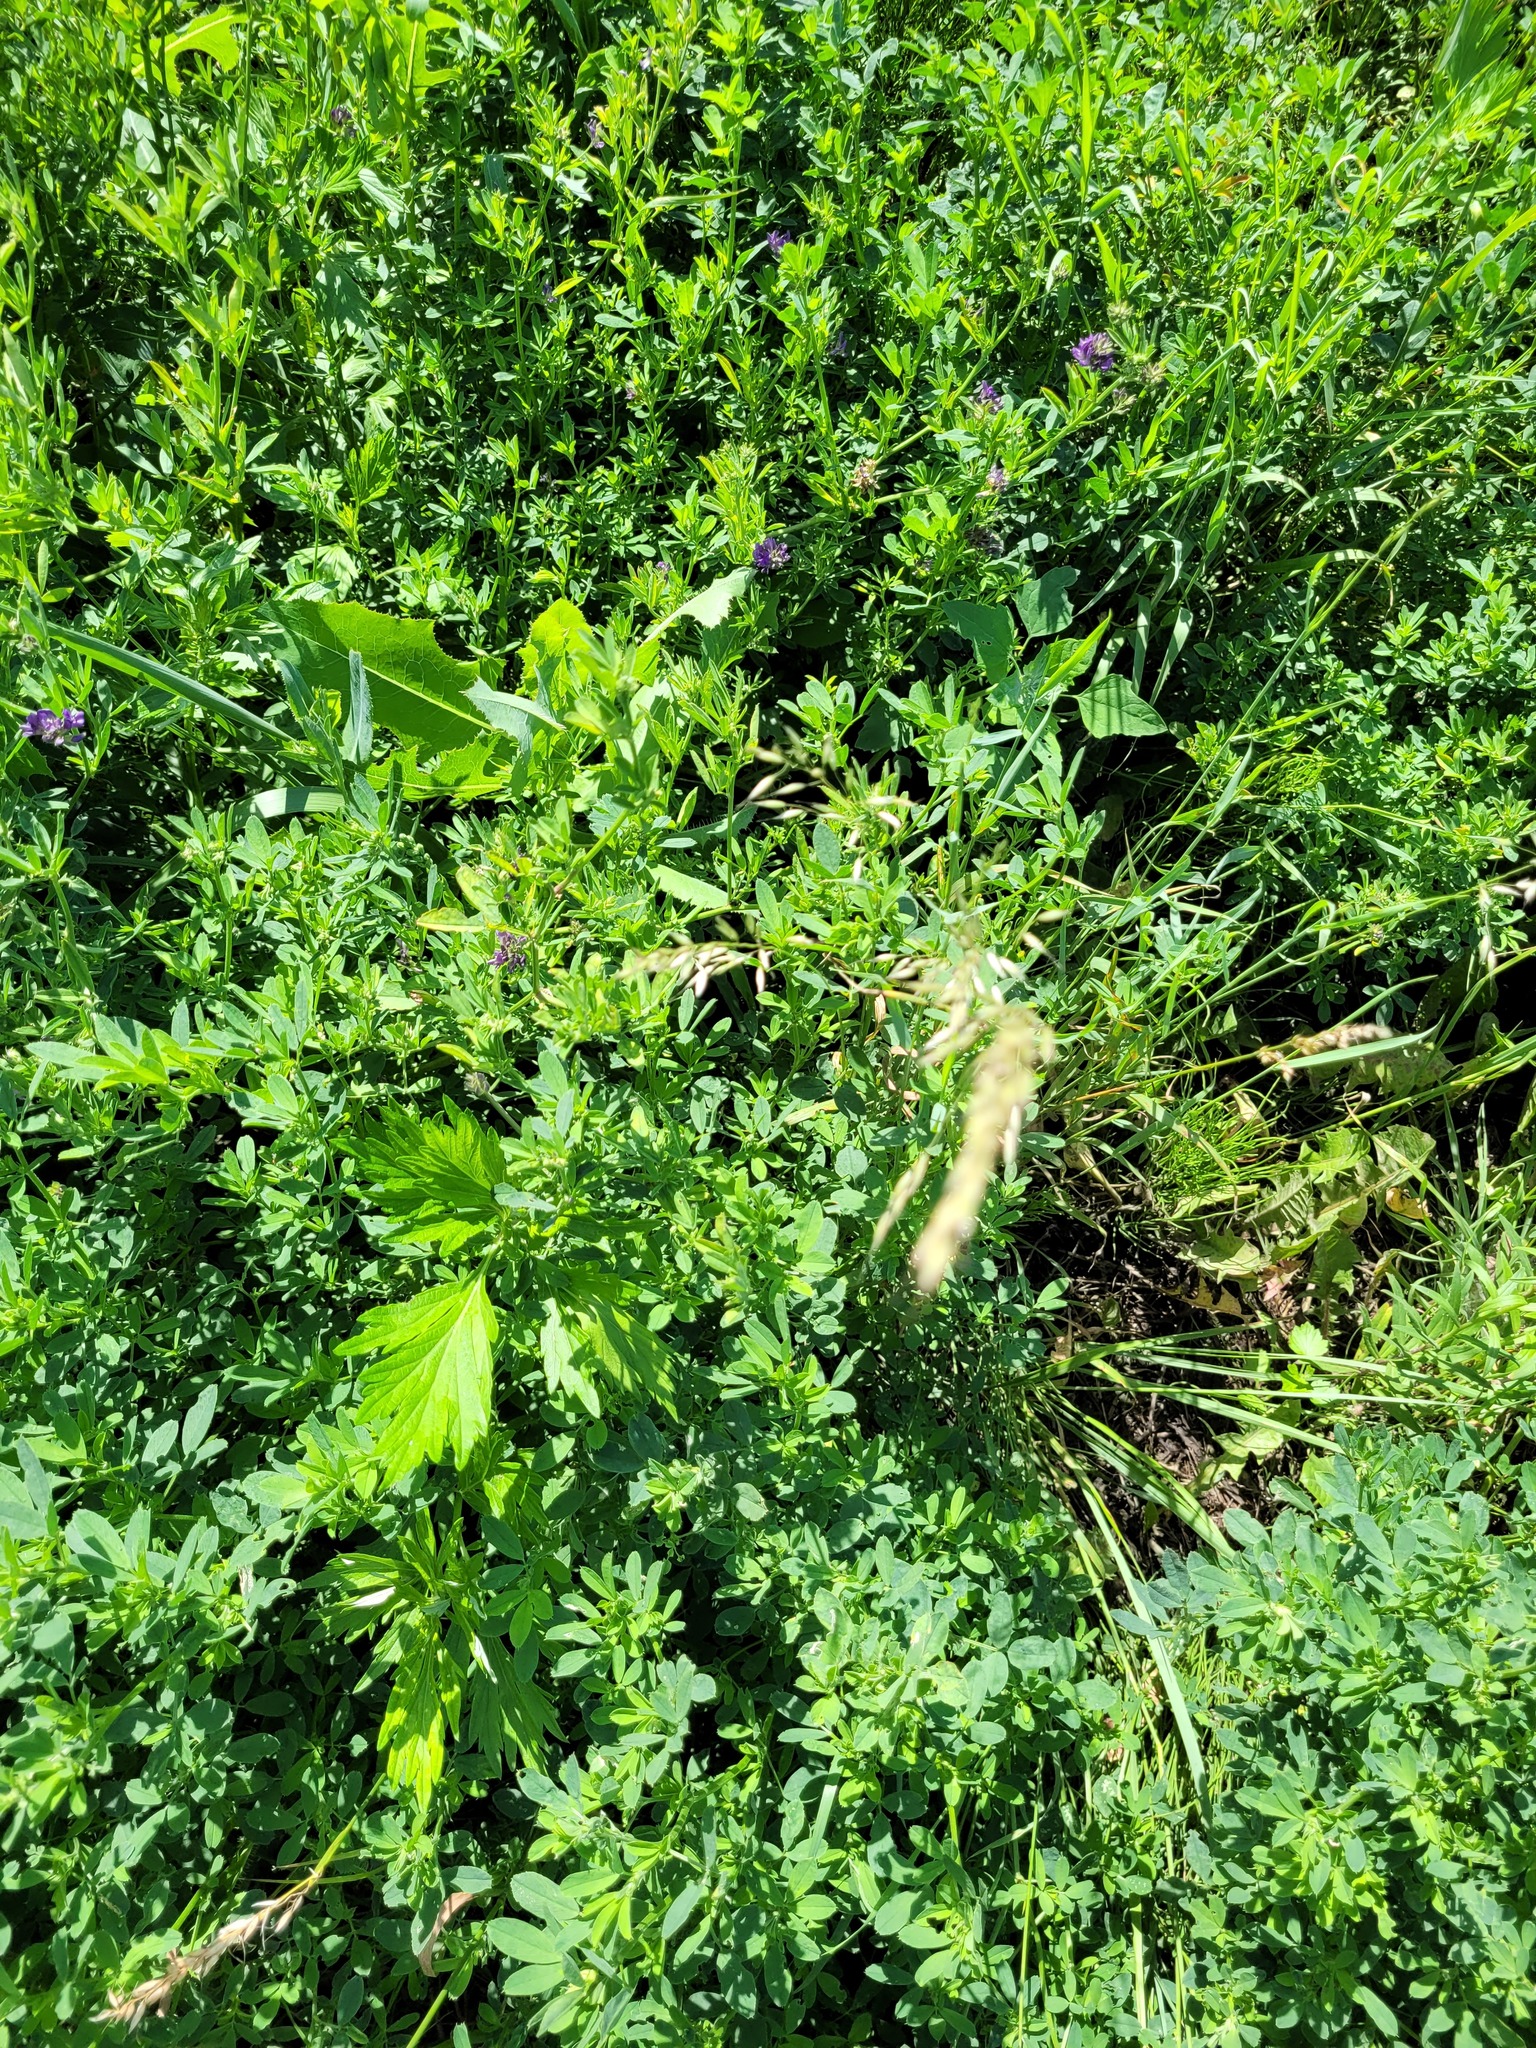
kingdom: Plantae
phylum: Tracheophyta
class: Liliopsida
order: Poales
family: Poaceae
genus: Arrhenatherum
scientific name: Arrhenatherum elatius
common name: Tall oatgrass
